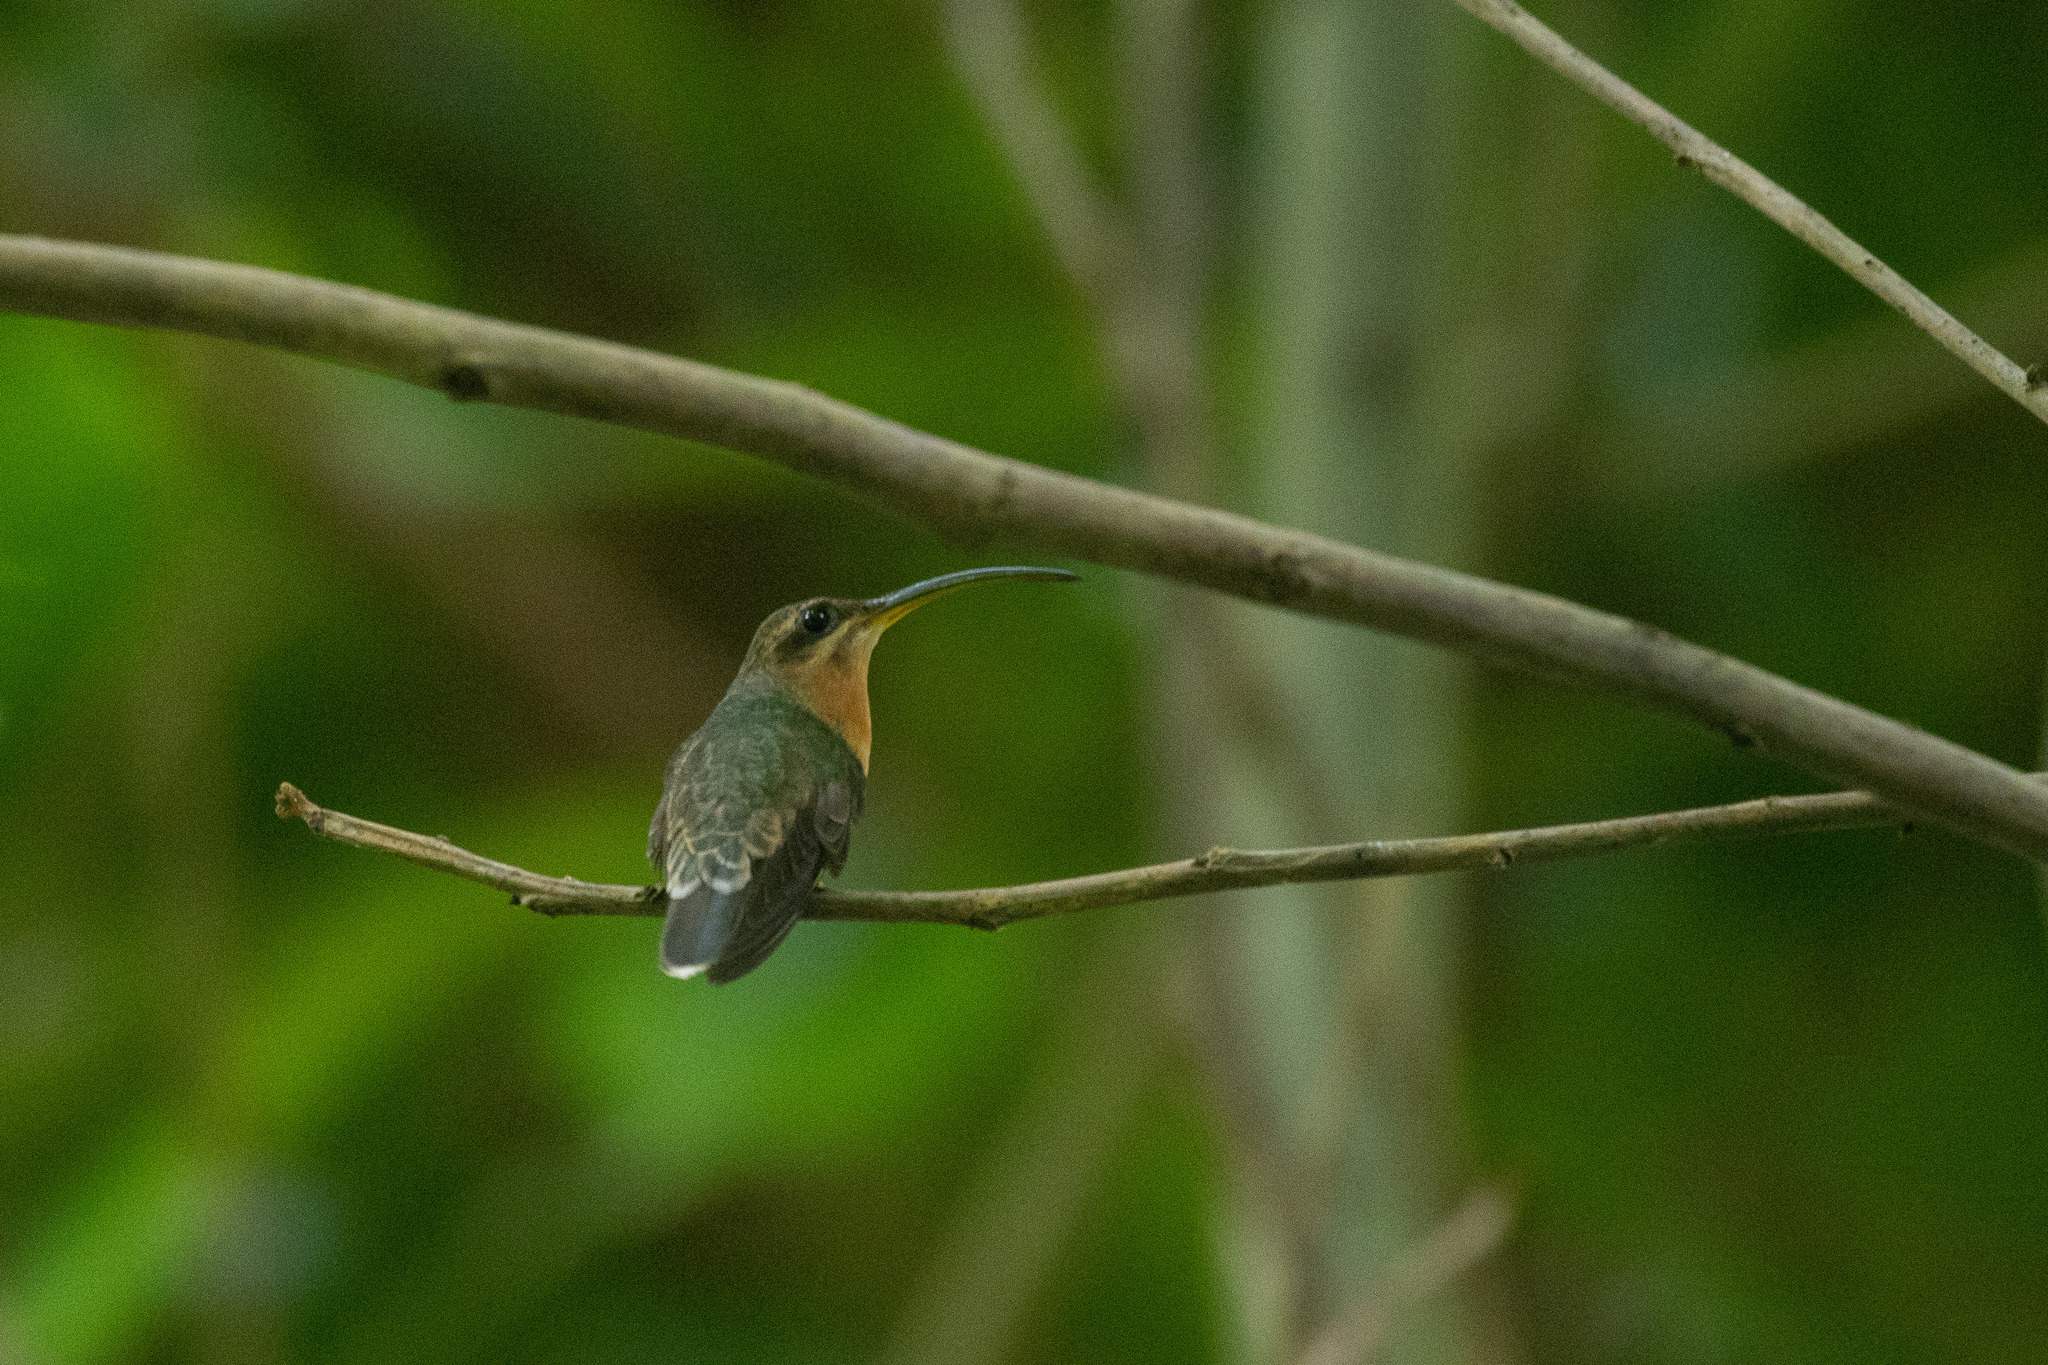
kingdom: Animalia
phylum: Chordata
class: Aves
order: Apodiformes
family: Trochilidae
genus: Glaucis
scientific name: Glaucis hirsutus
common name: Rufous-breasted hermit
